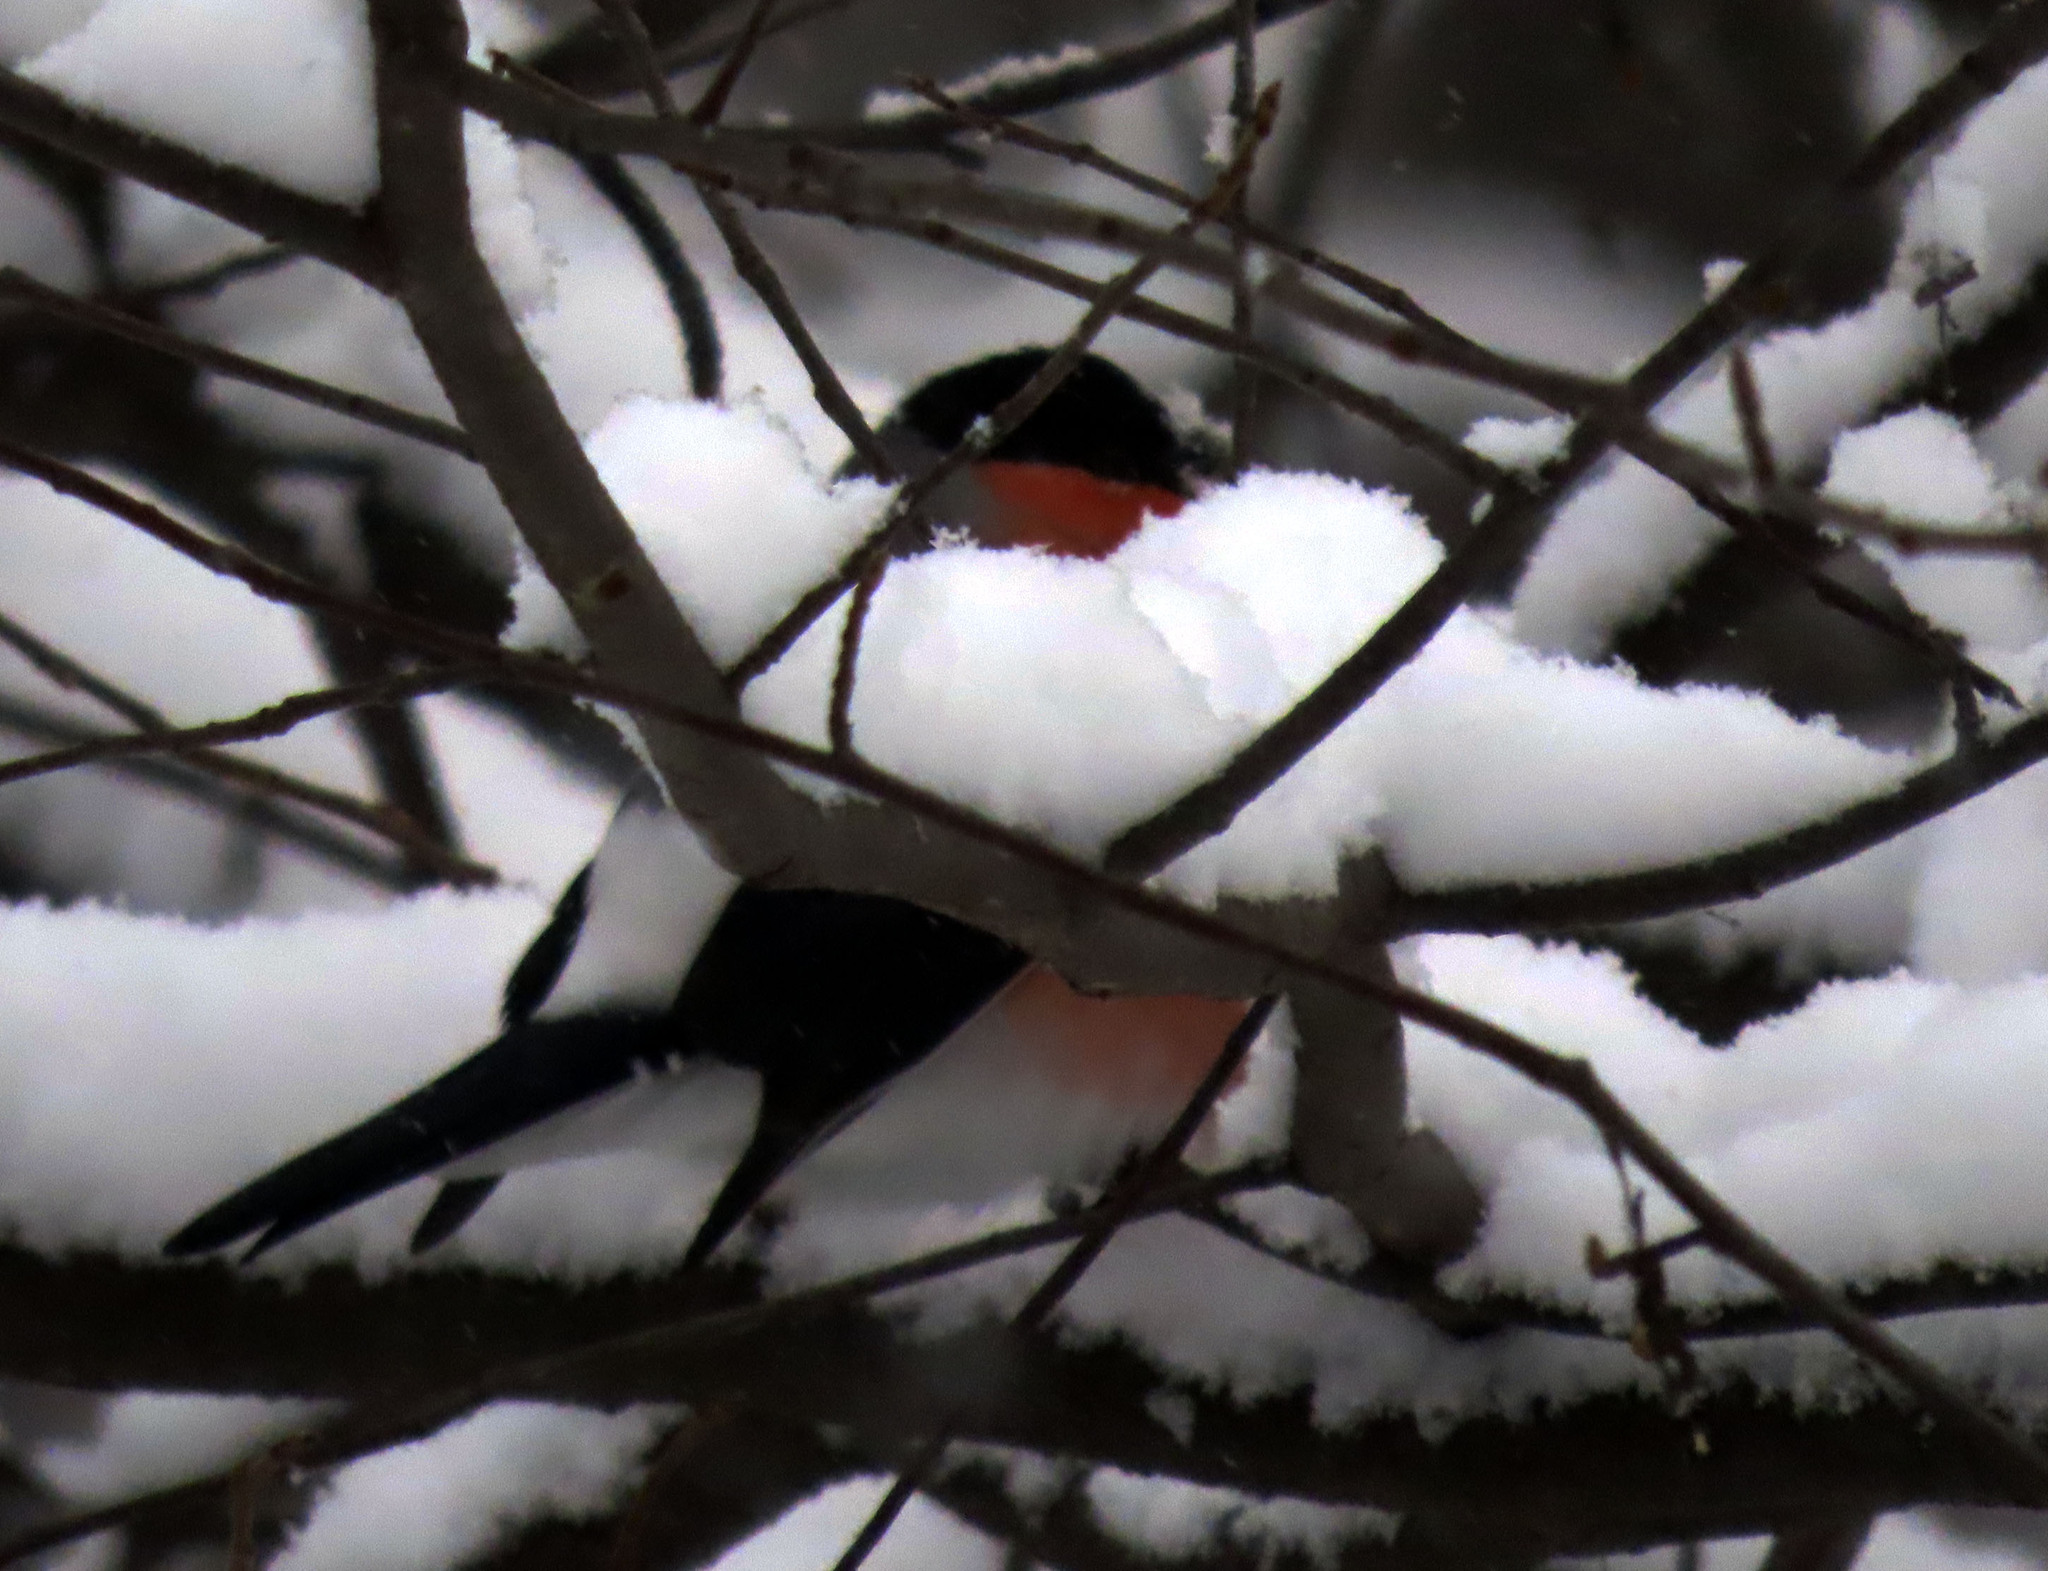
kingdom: Animalia
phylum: Chordata
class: Aves
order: Passeriformes
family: Fringillidae
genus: Pyrrhula
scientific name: Pyrrhula pyrrhula
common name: Eurasian bullfinch
